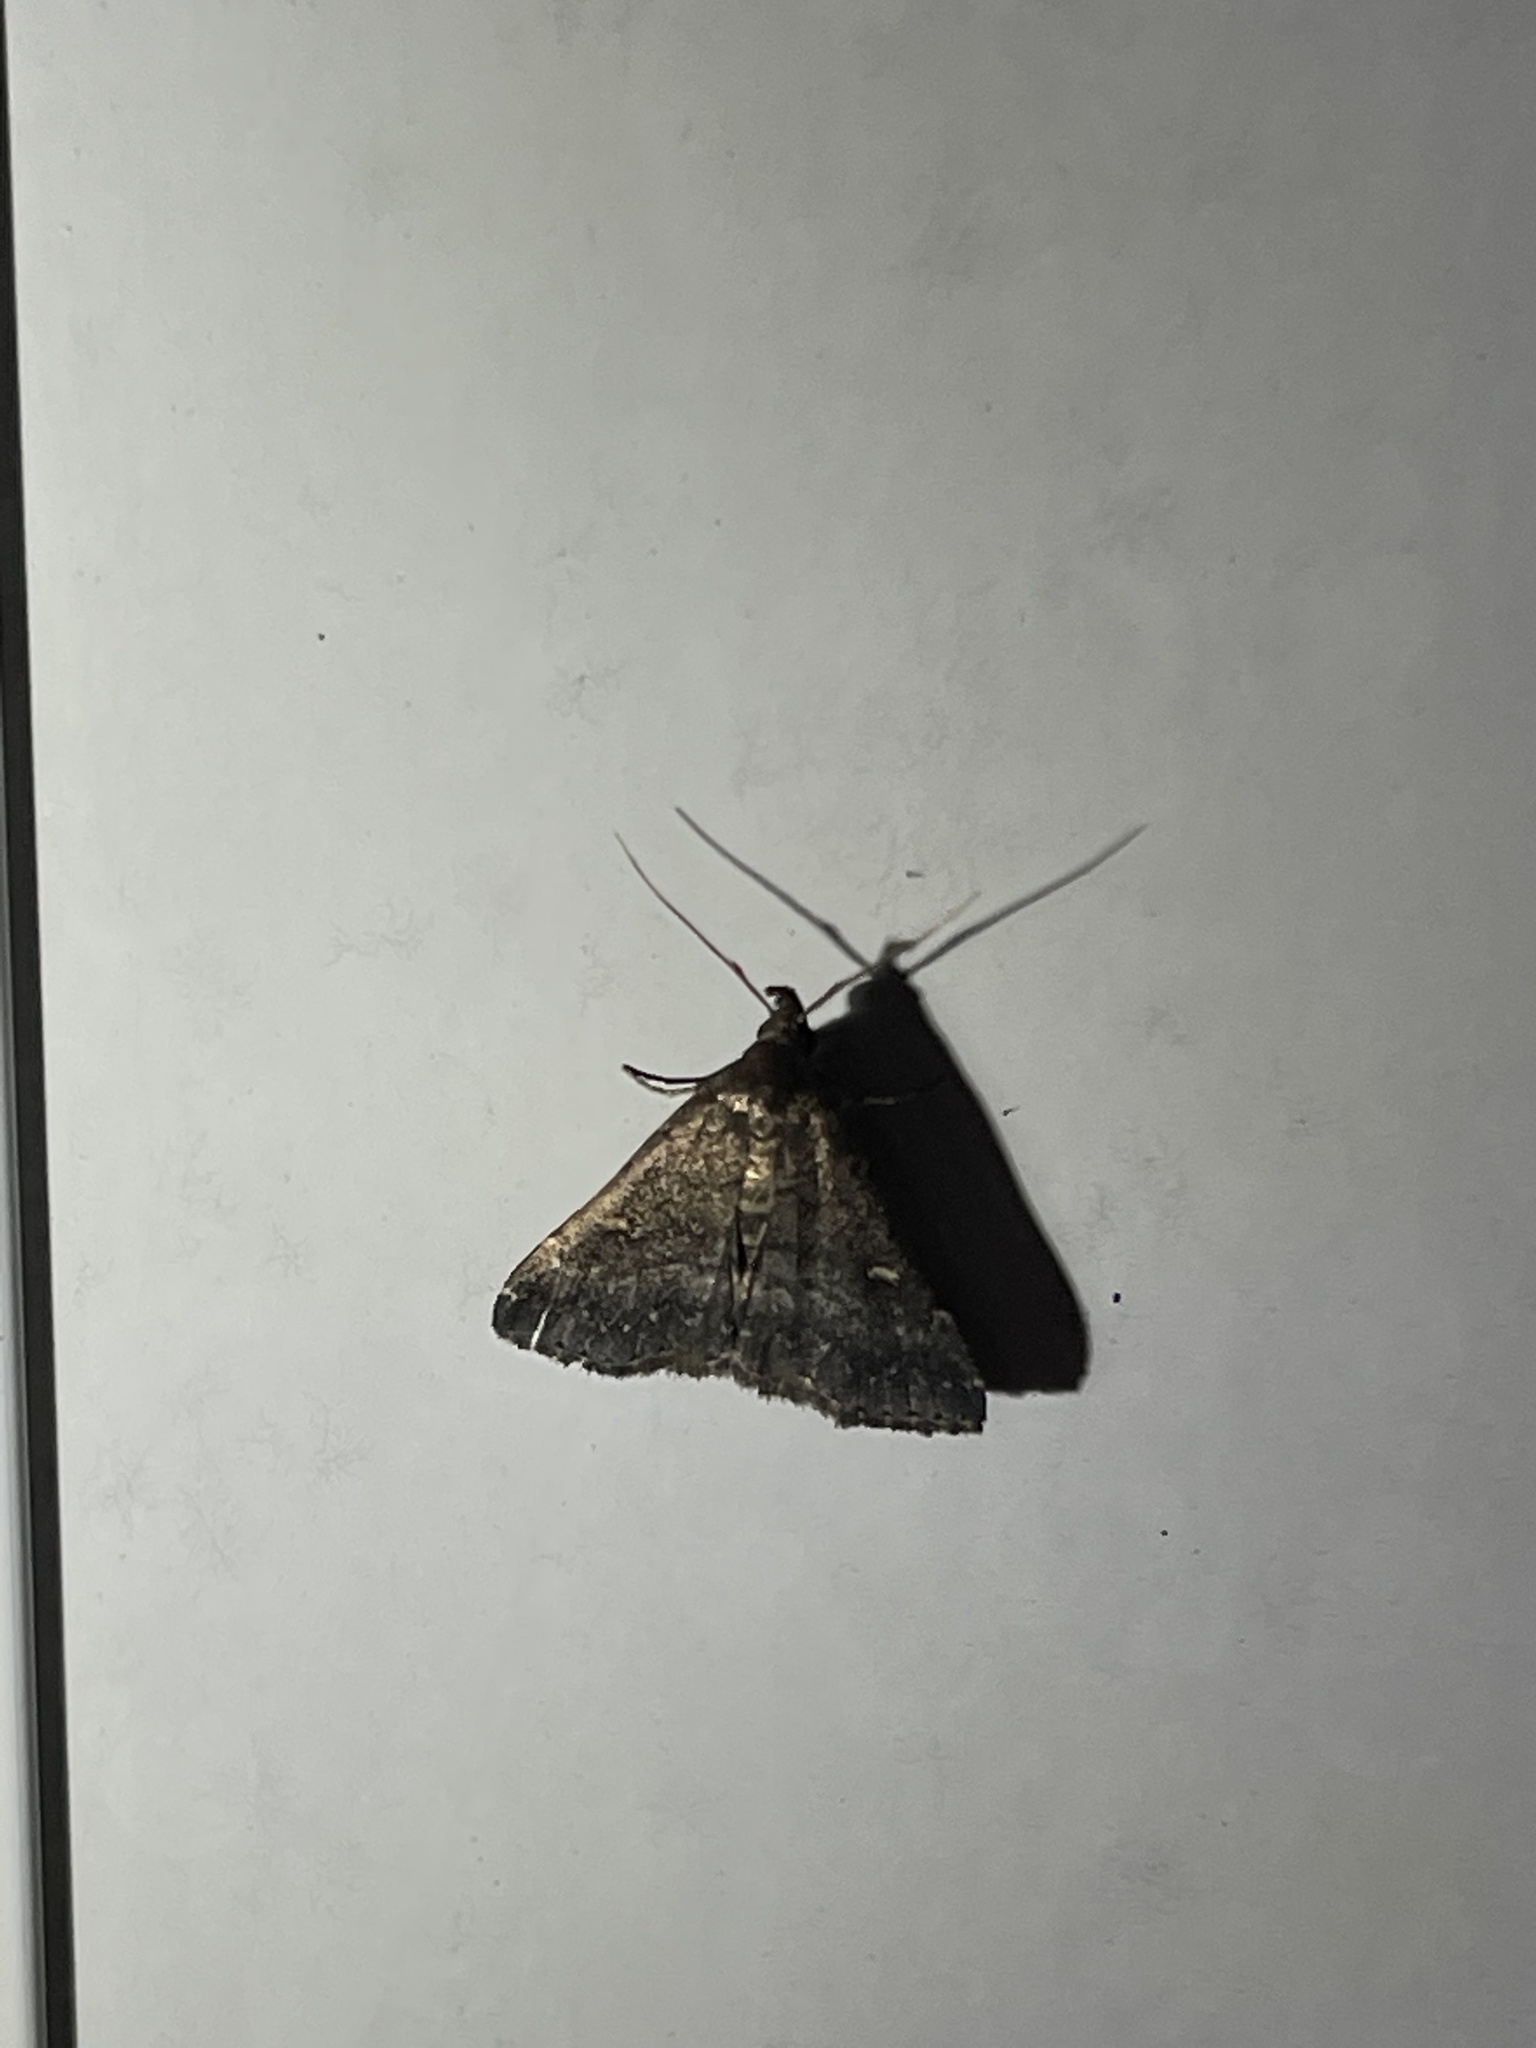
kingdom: Animalia
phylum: Arthropoda
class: Insecta
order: Lepidoptera
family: Erebidae
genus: Tetanolita
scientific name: Tetanolita mynesalis
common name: Smoky tetanolita moth
